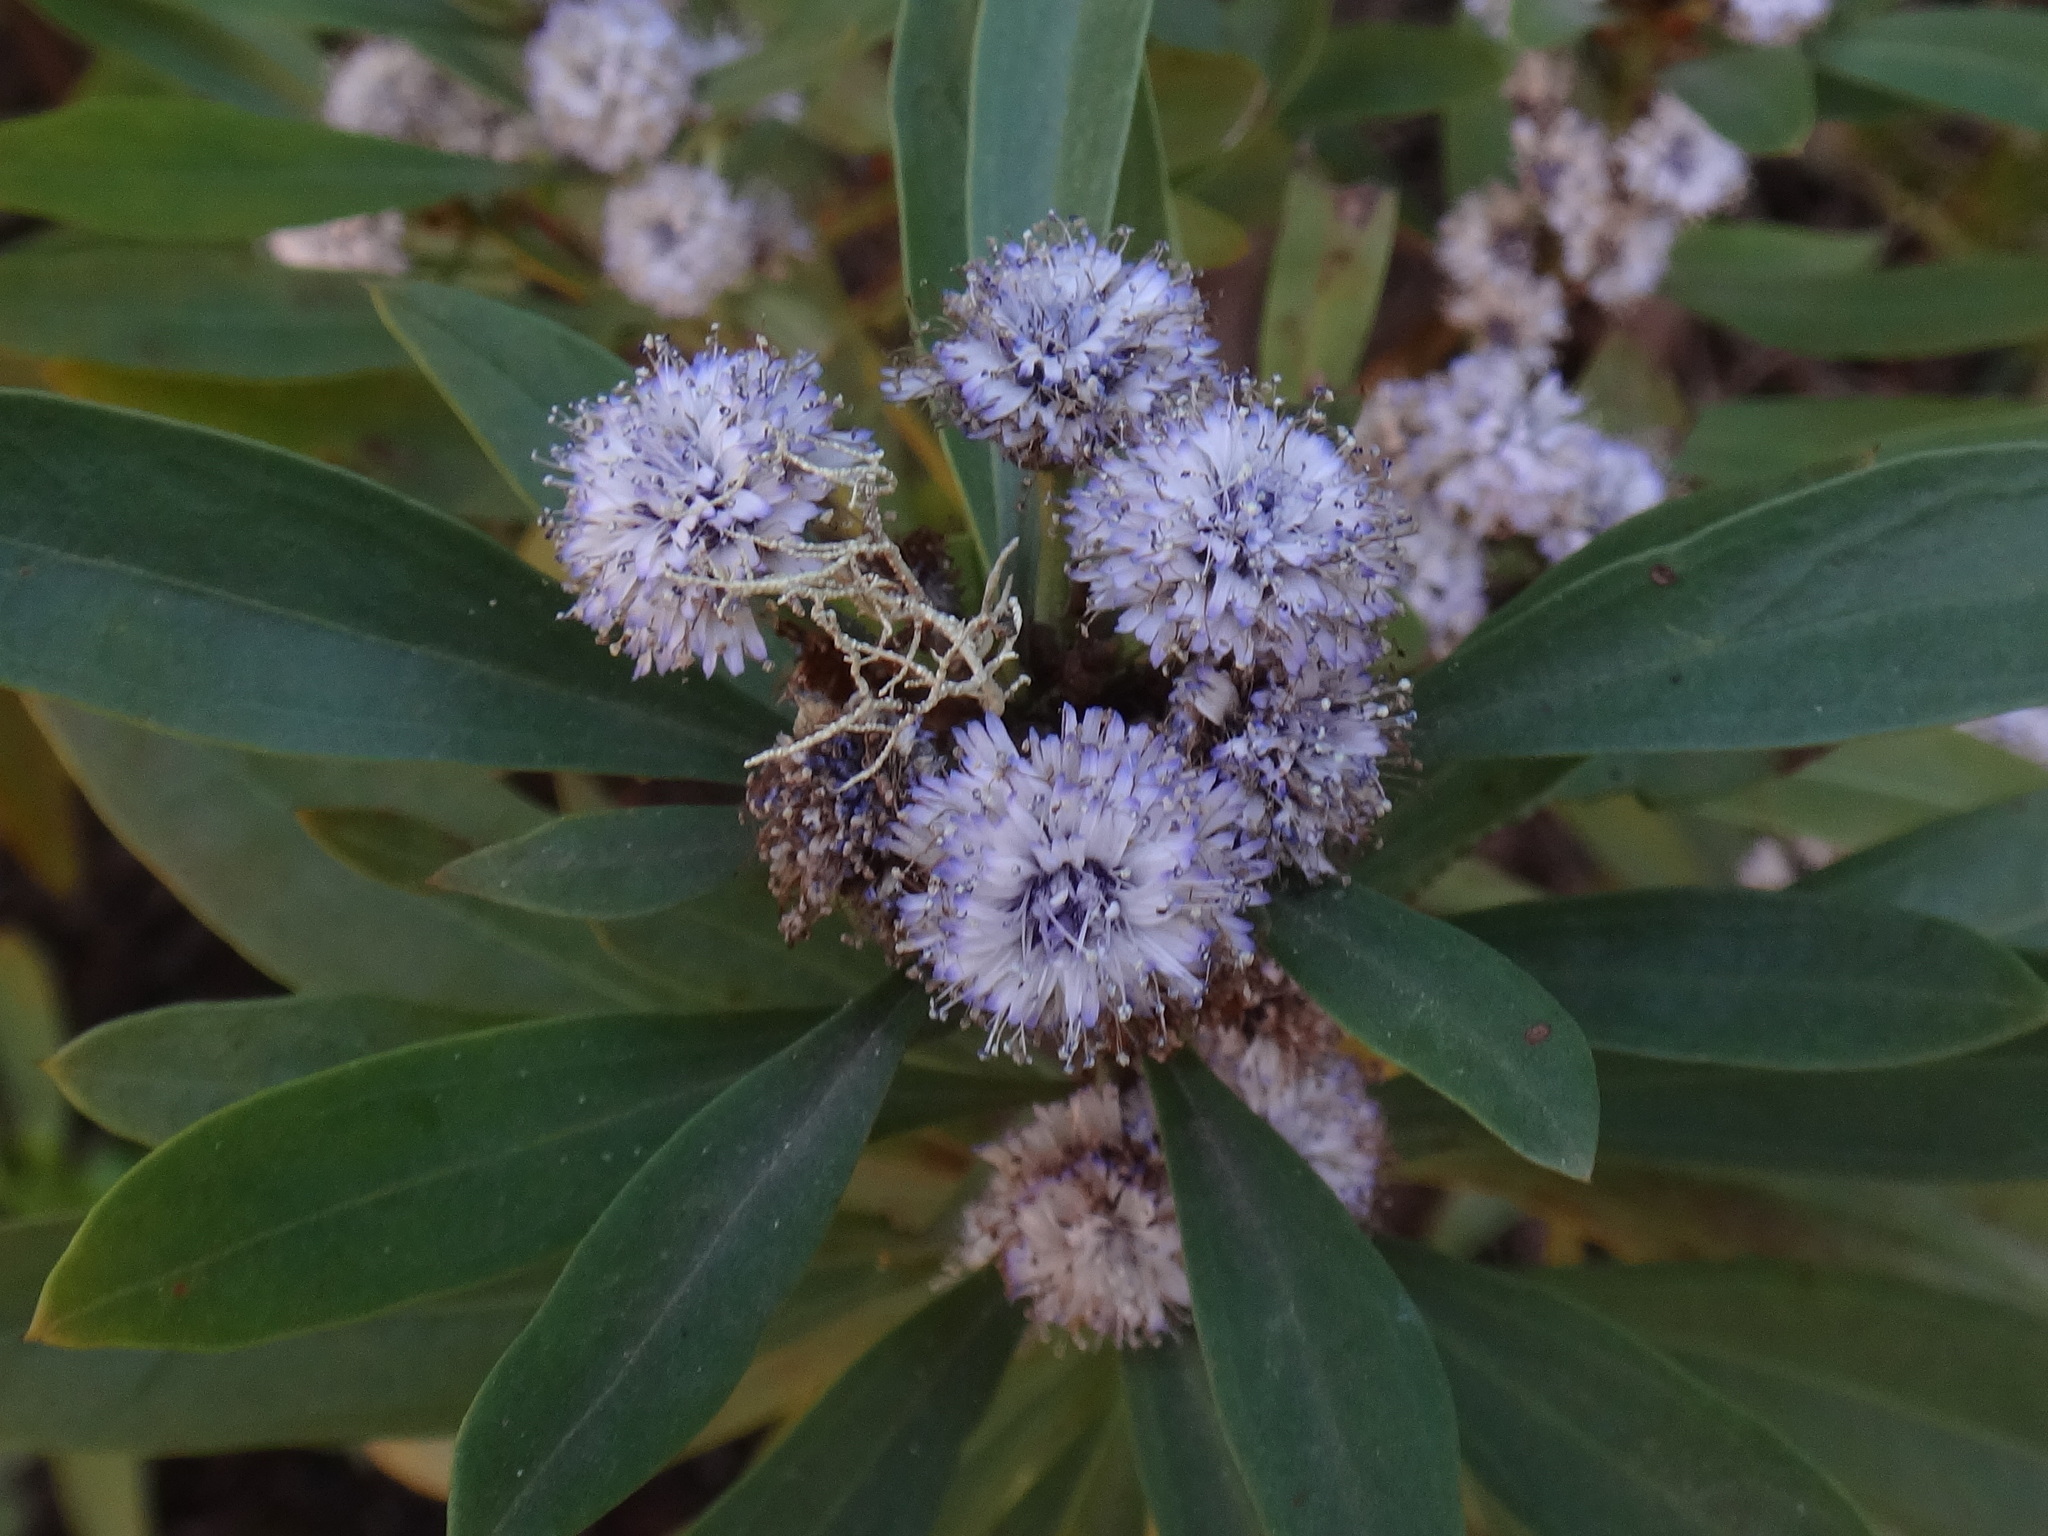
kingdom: Plantae
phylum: Tracheophyta
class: Magnoliopsida
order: Lamiales
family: Plantaginaceae
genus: Globularia
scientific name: Globularia salicina
